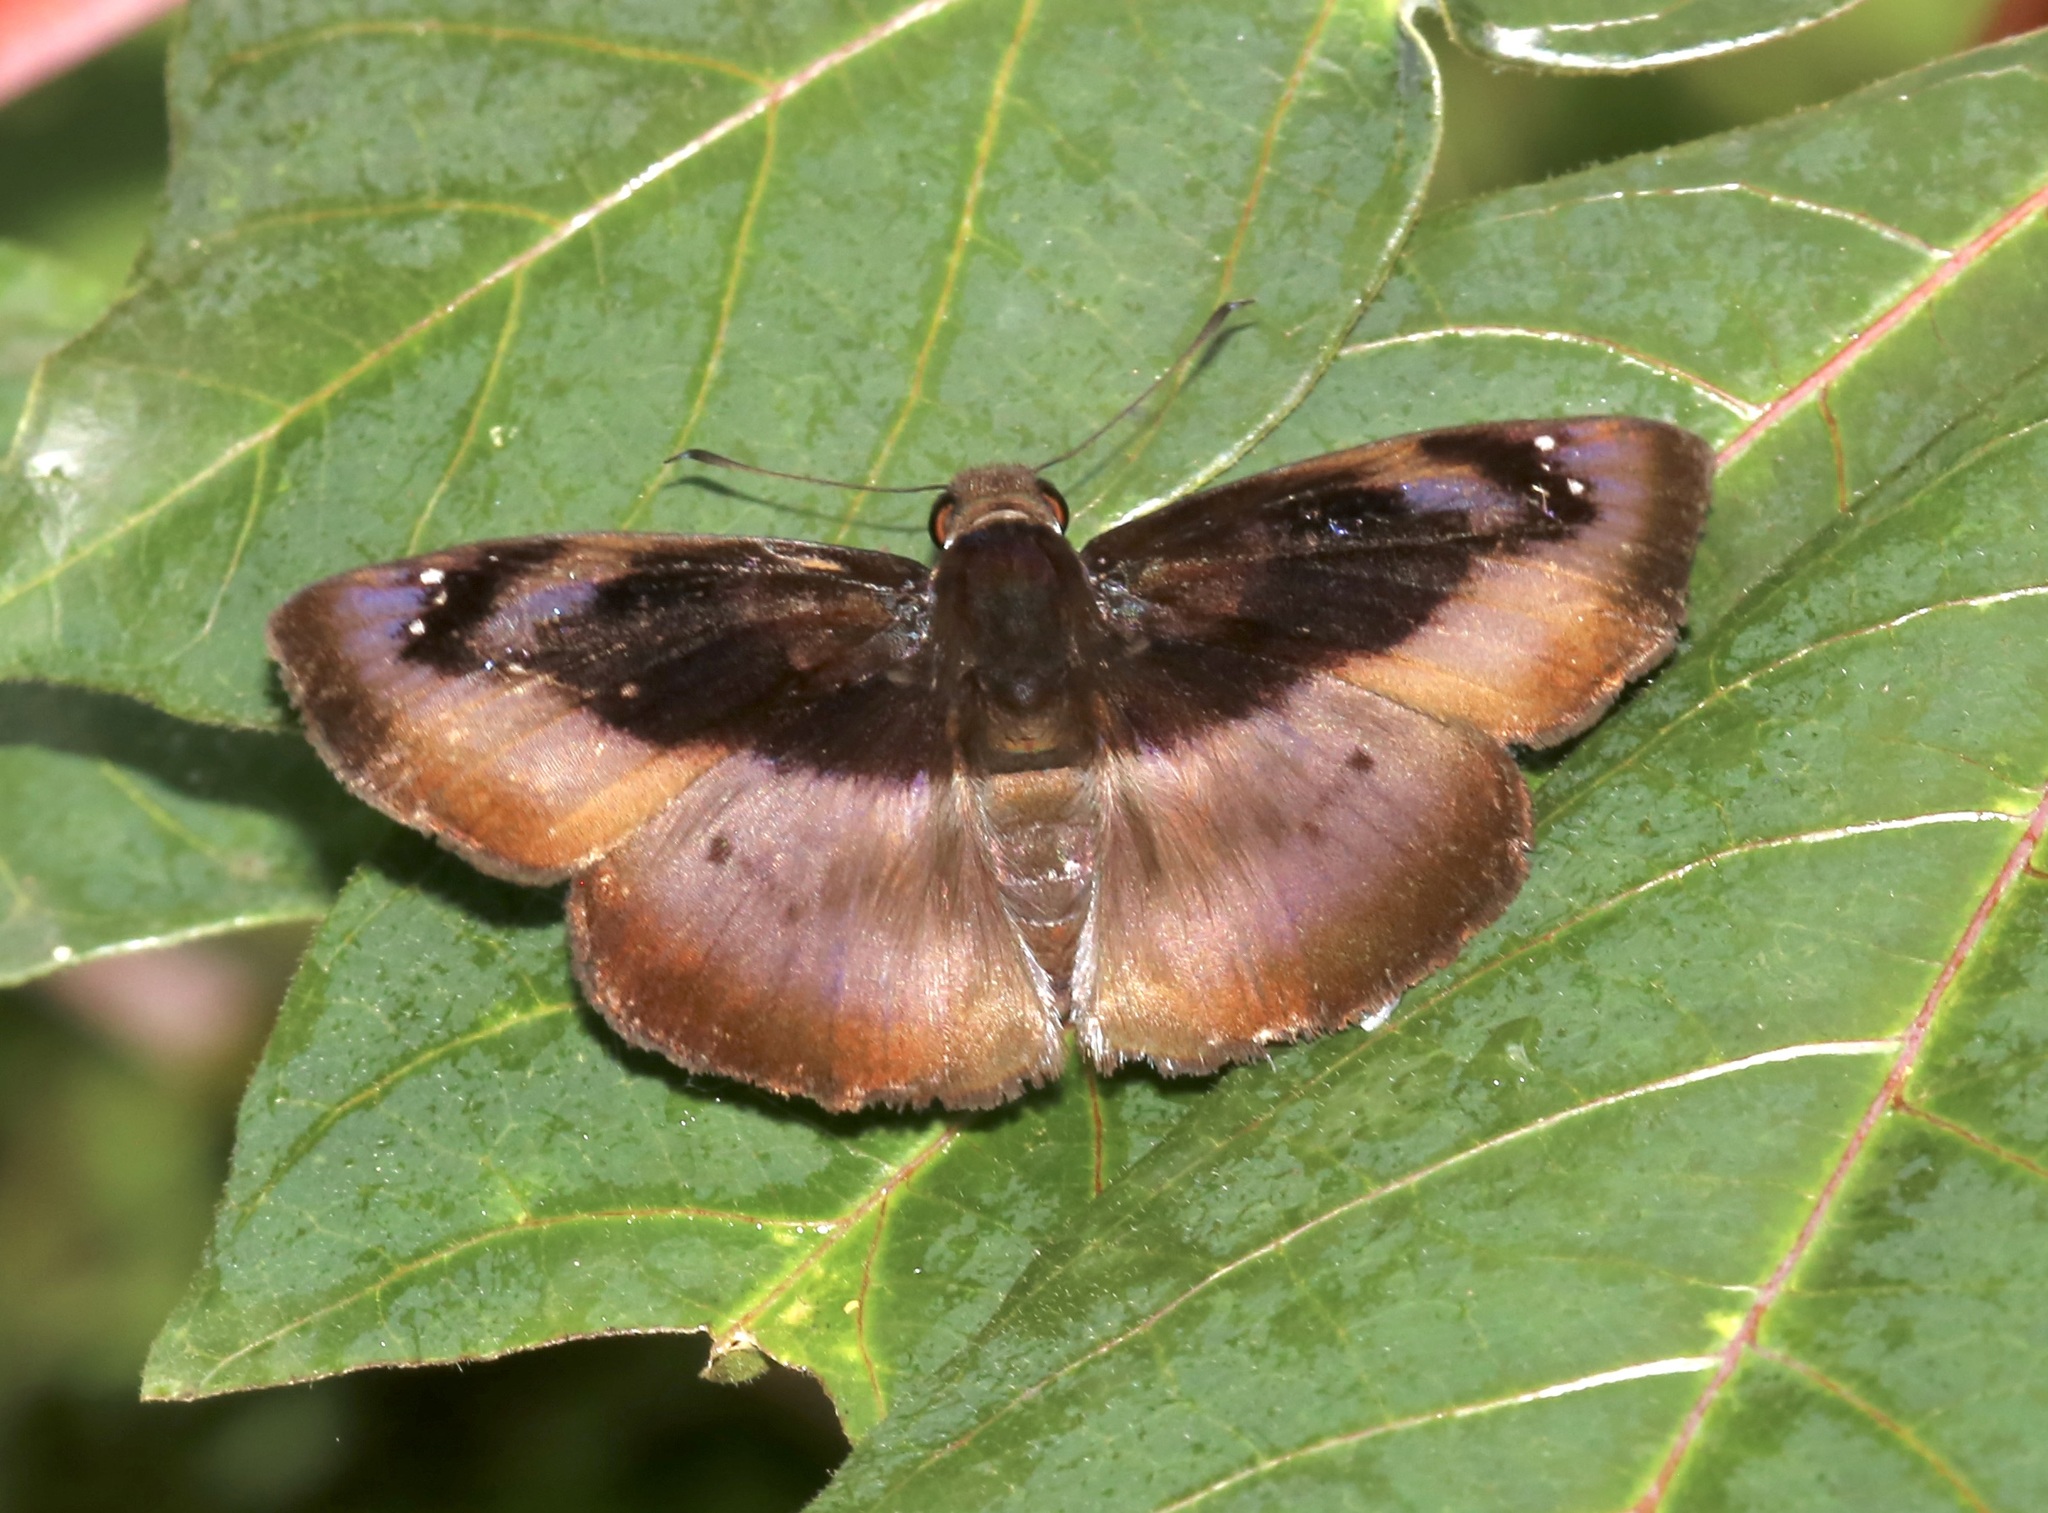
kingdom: Animalia
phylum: Arthropoda
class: Insecta
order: Lepidoptera
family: Hesperiidae
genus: Zera
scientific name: Zera nolckeni
